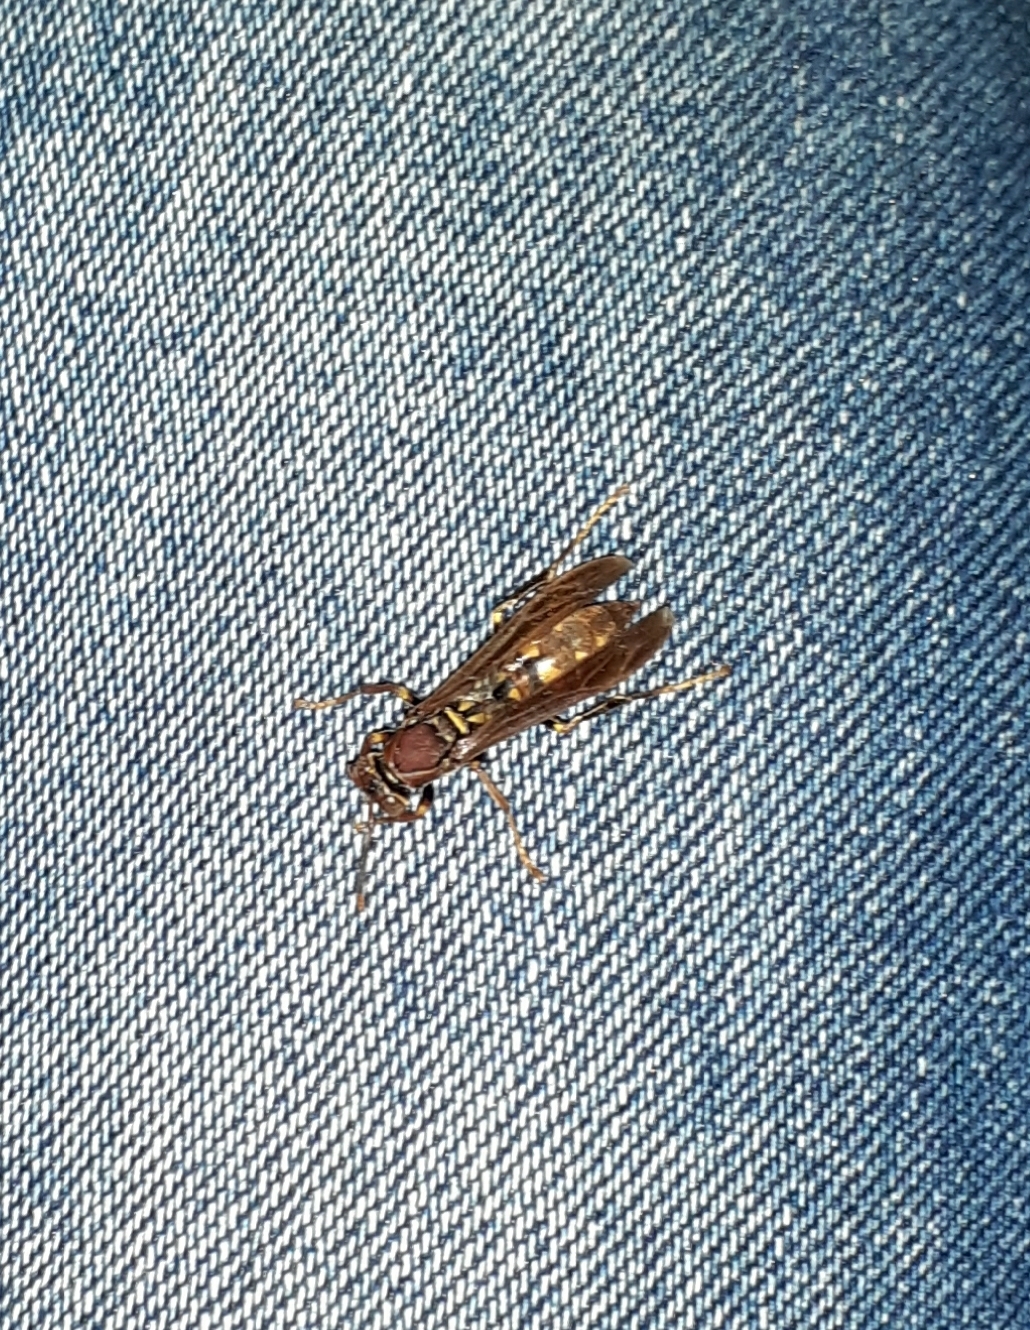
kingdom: Animalia
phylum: Arthropoda
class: Insecta
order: Hymenoptera
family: Eumenidae
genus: Polistes
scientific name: Polistes versicolor
